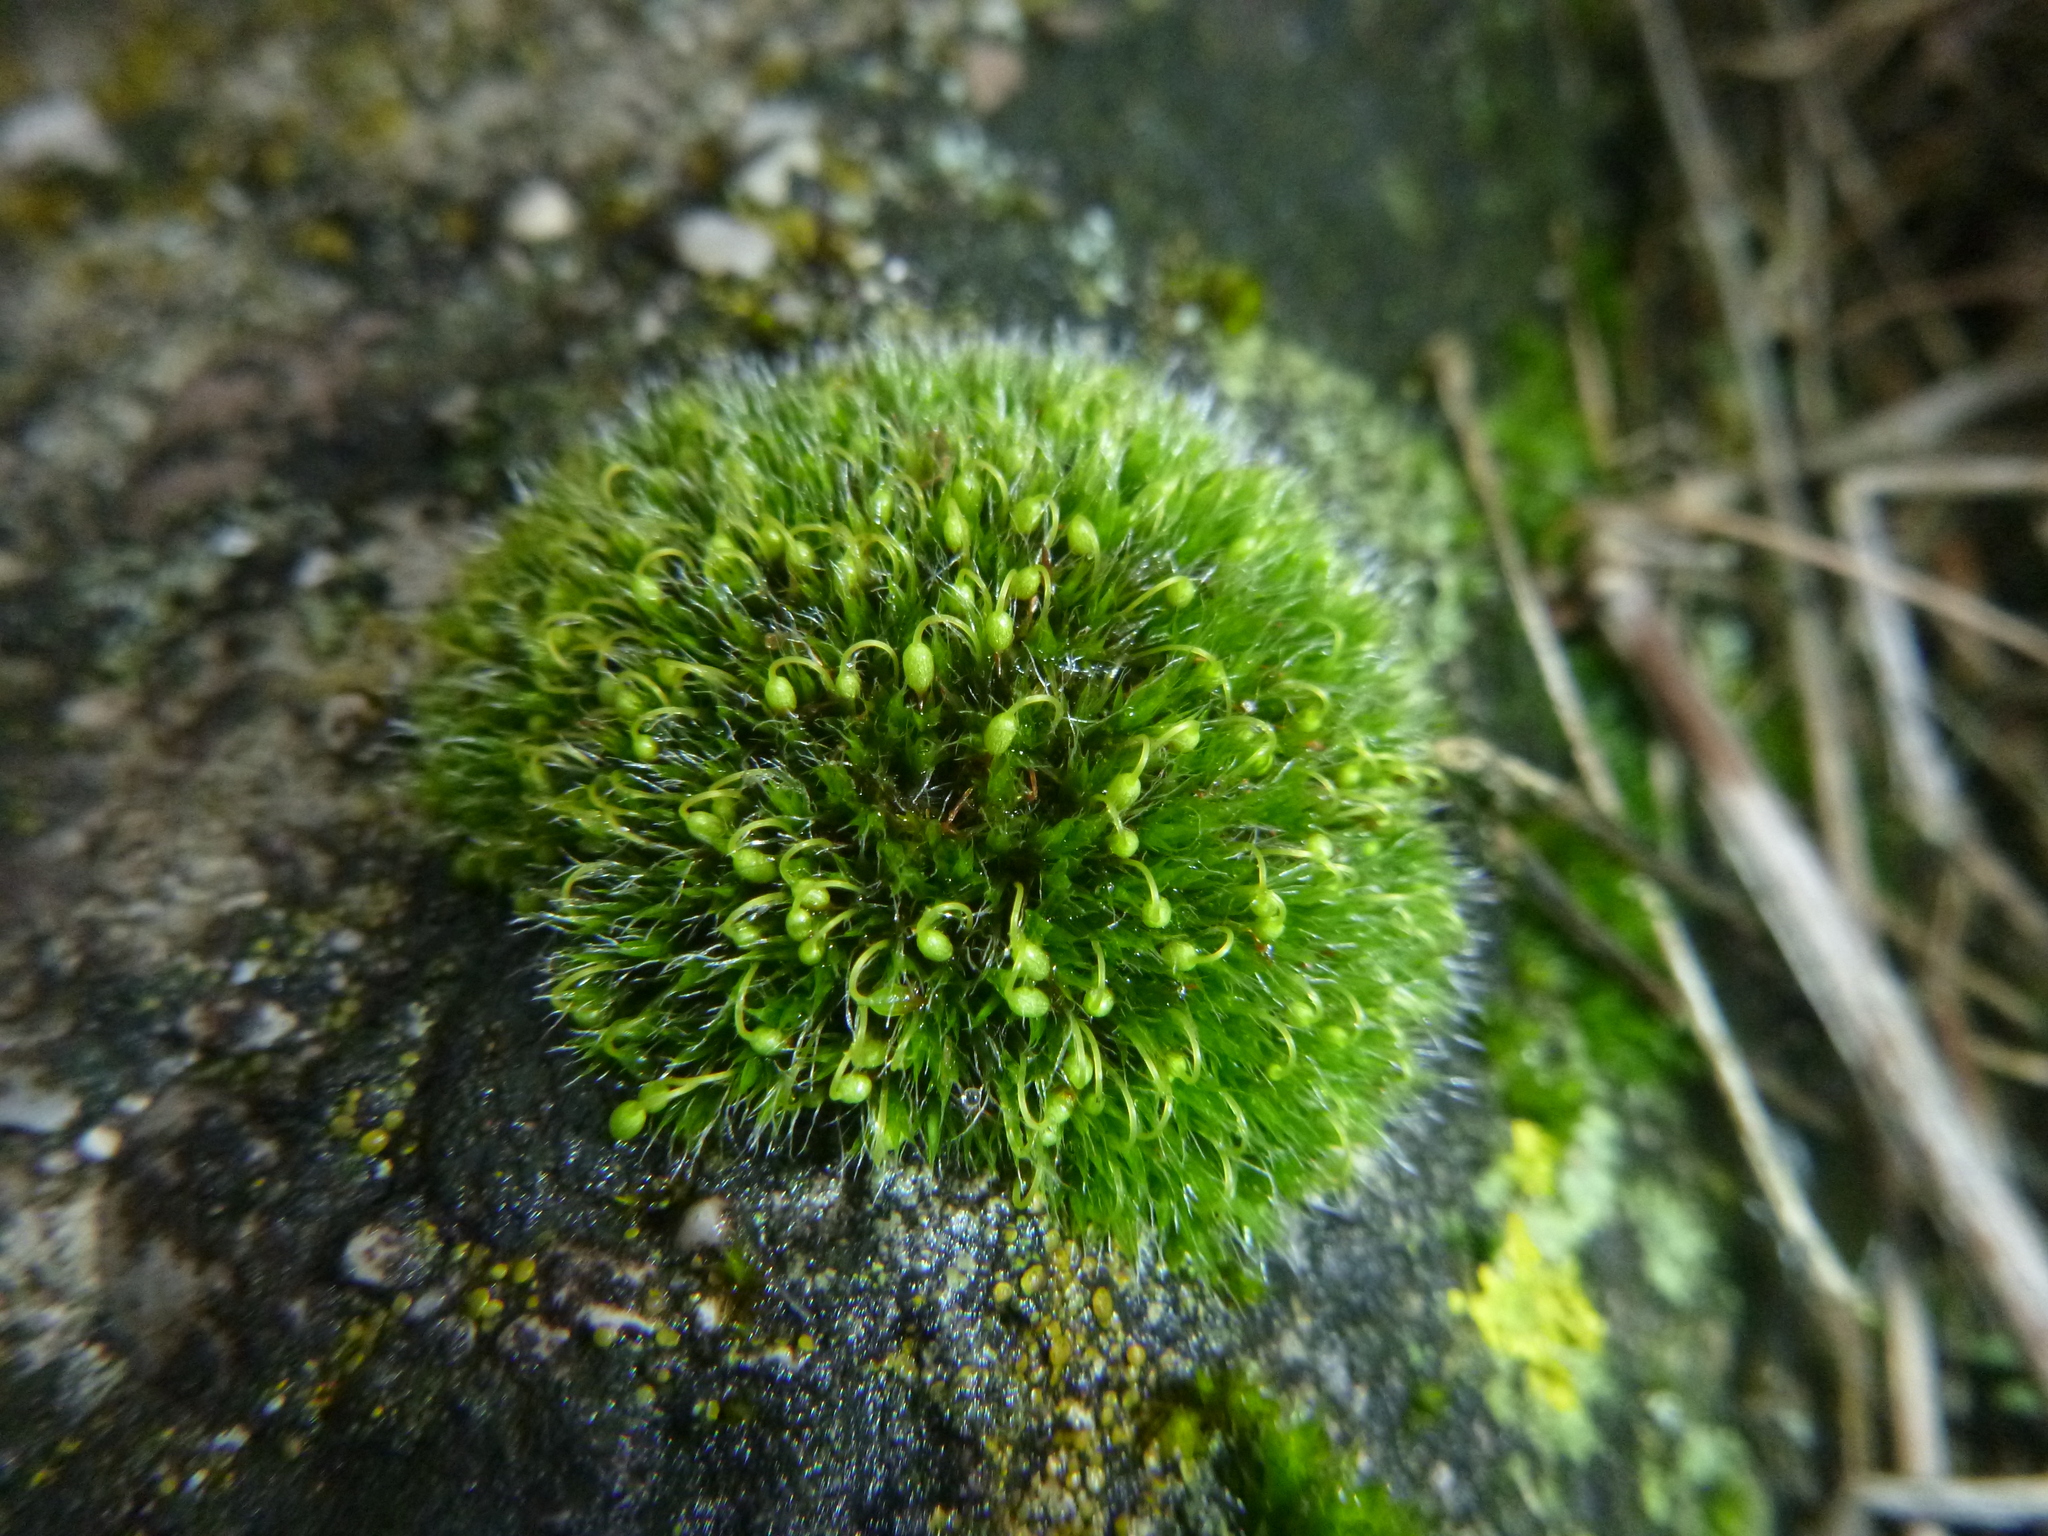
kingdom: Plantae
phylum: Bryophyta
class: Bryopsida
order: Grimmiales
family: Grimmiaceae
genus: Grimmia
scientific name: Grimmia pulvinata
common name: Grey-cushioned grimmia
